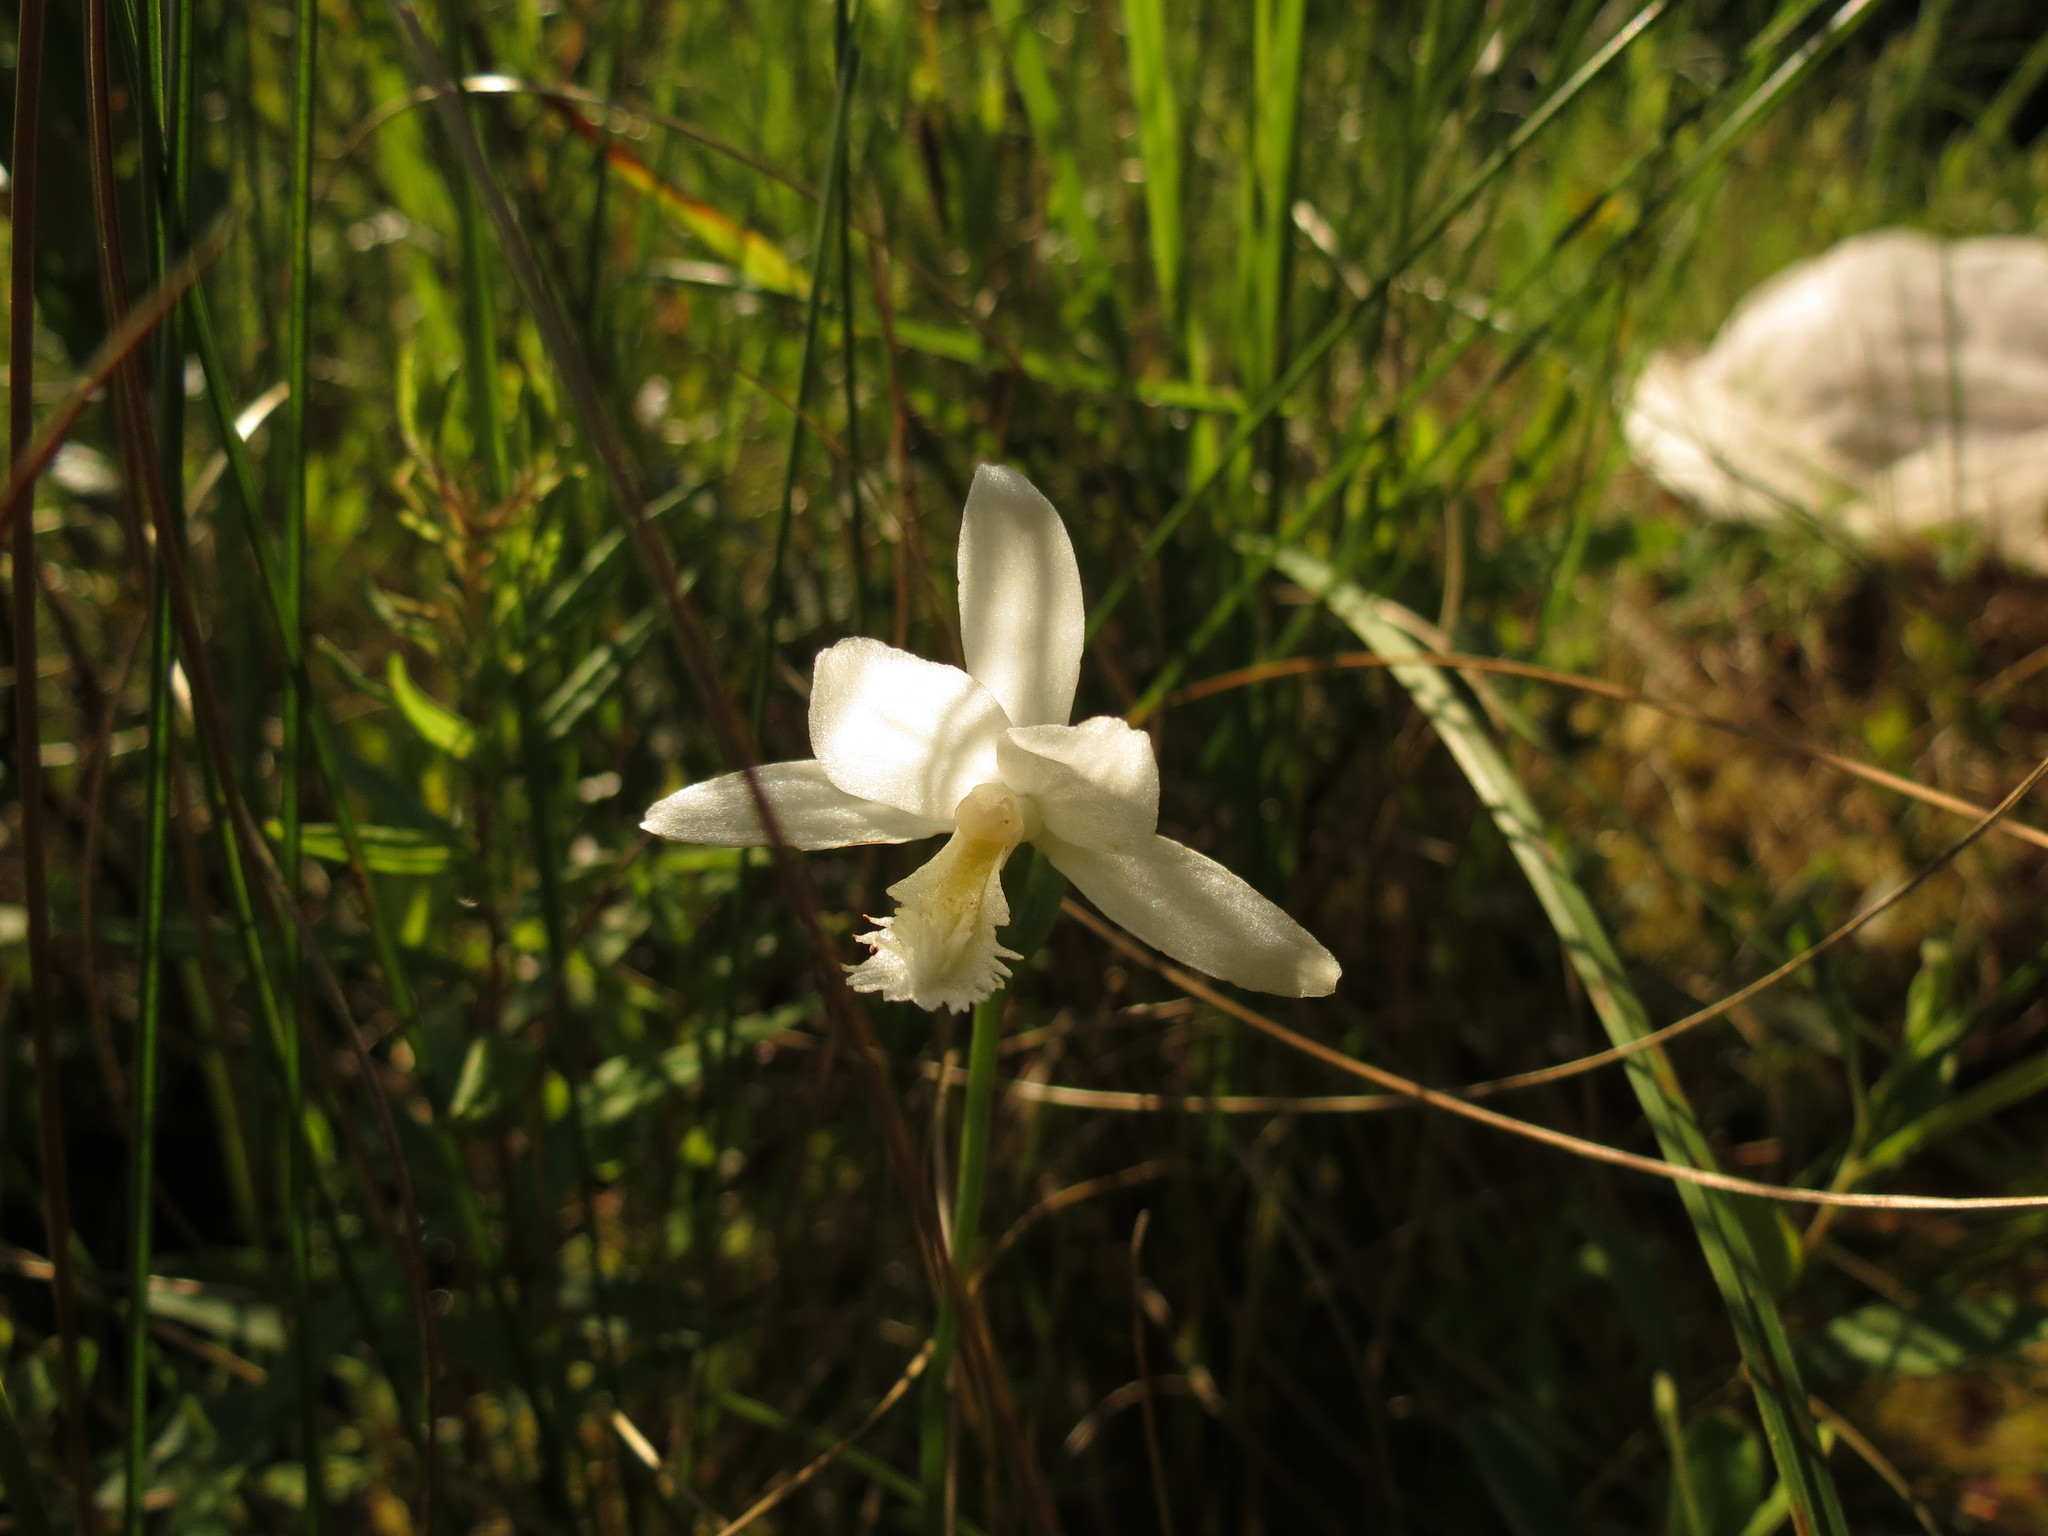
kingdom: Plantae
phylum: Tracheophyta
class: Liliopsida
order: Asparagales
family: Orchidaceae
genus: Pogonia
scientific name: Pogonia ophioglossoides
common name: Rose pogonia
